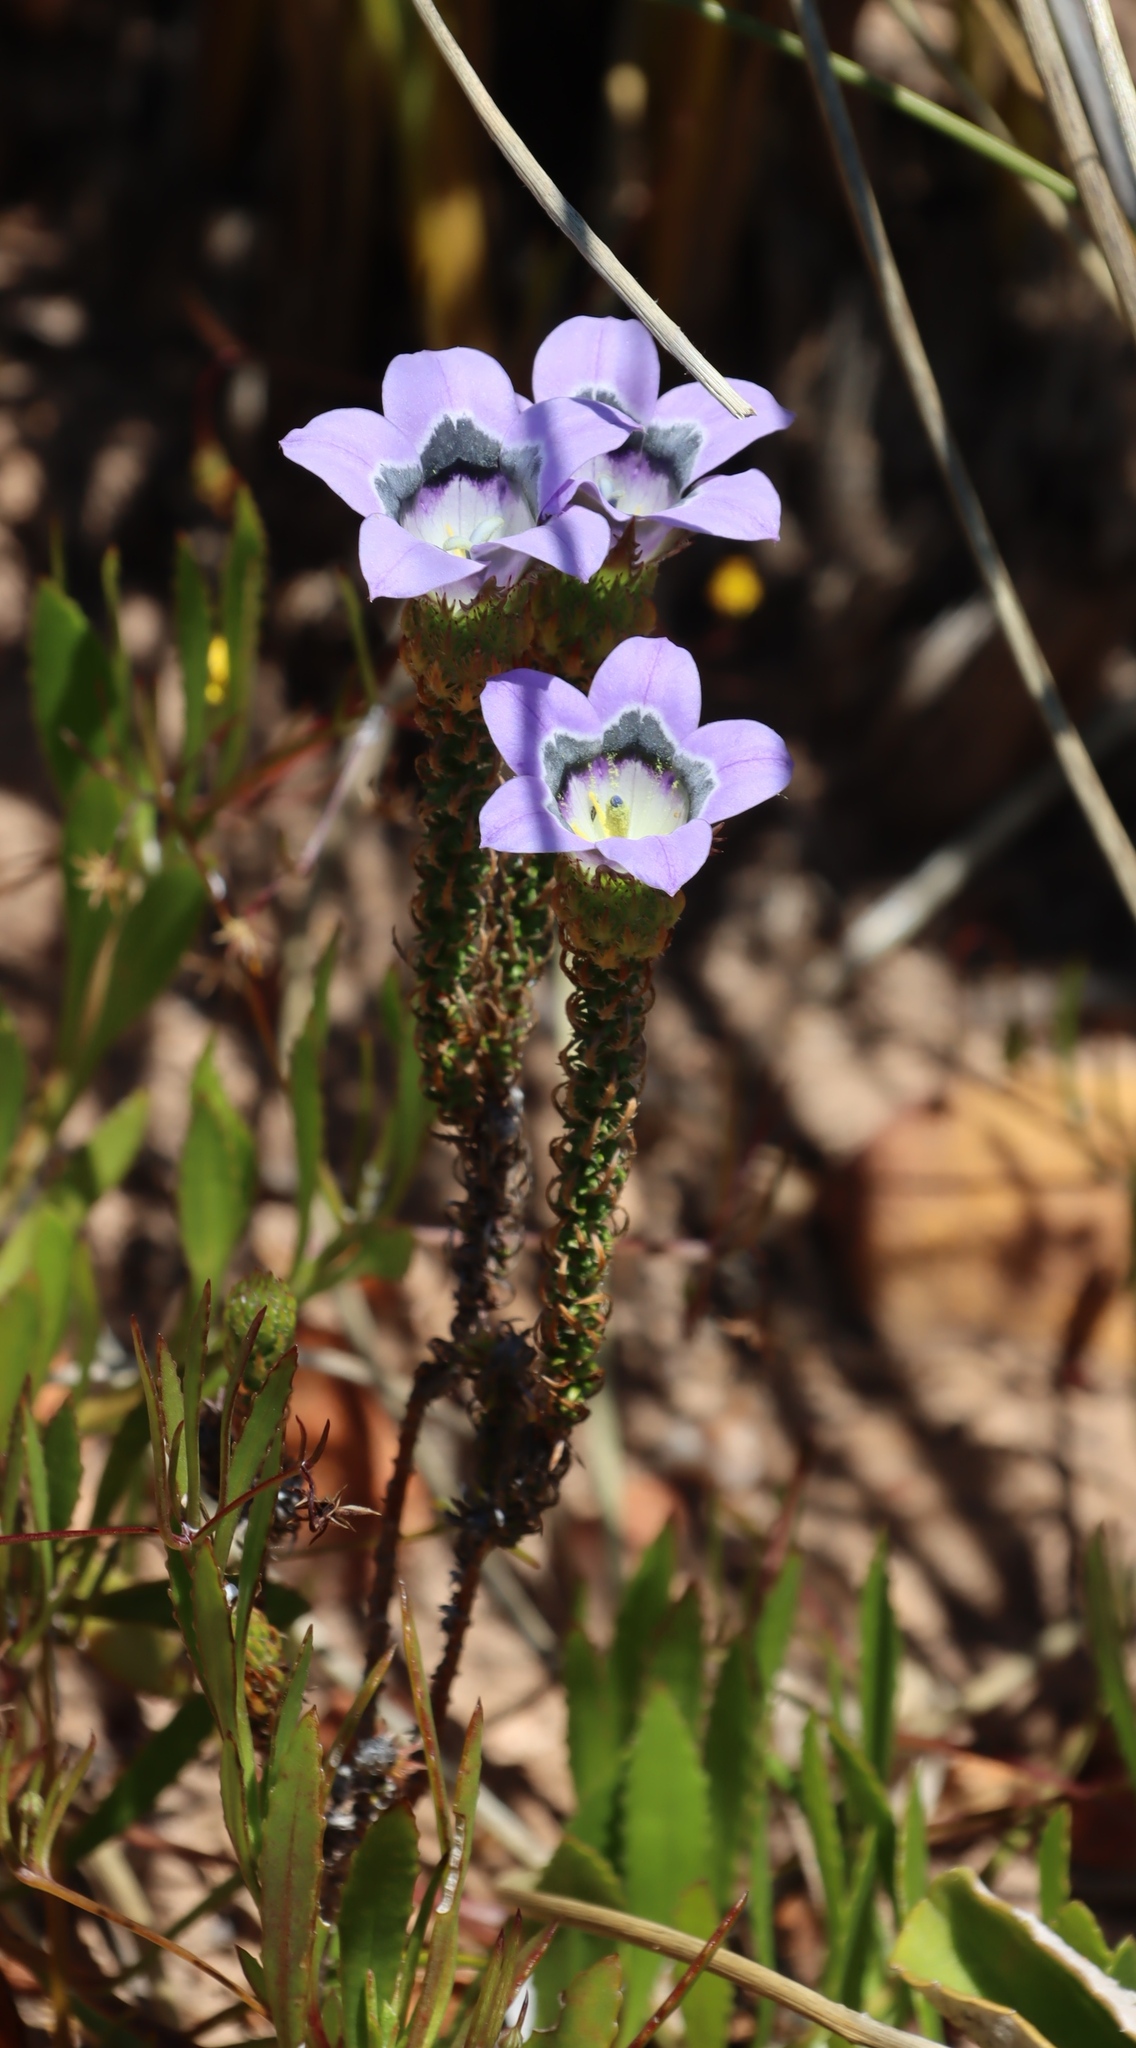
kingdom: Plantae
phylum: Tracheophyta
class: Magnoliopsida
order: Asterales
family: Campanulaceae
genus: Roella
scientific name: Roella ciliata
